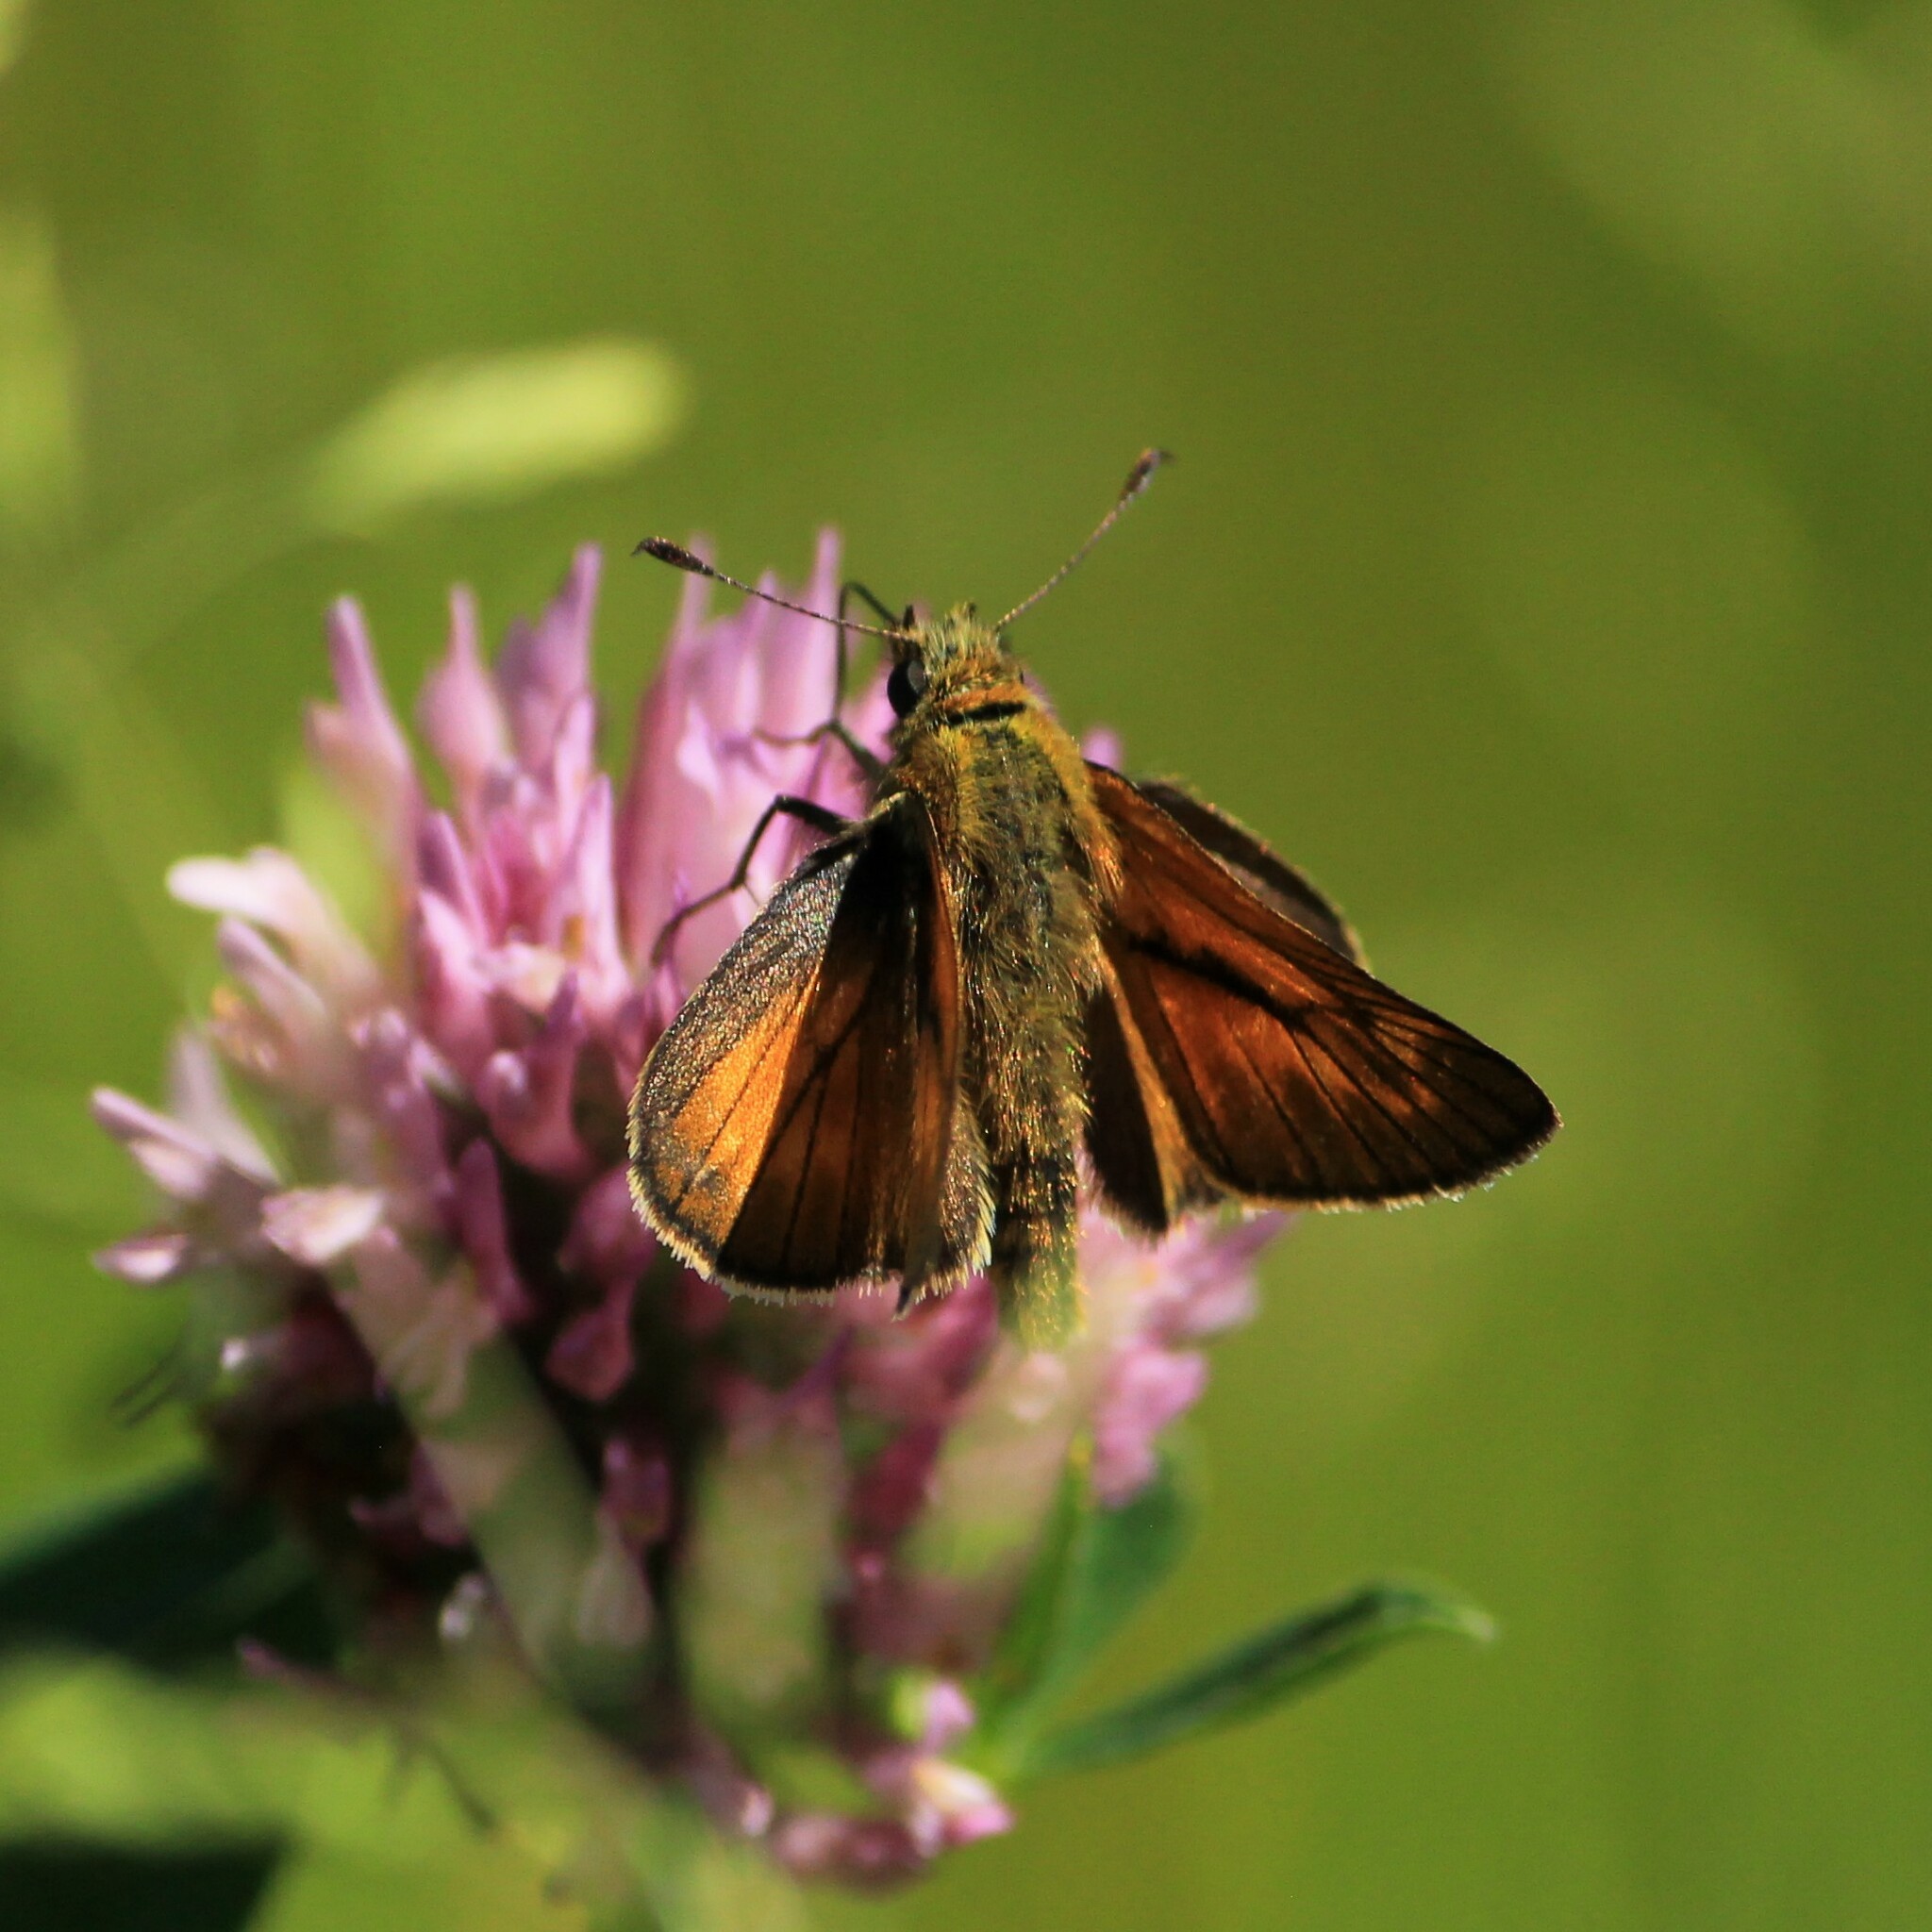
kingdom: Animalia
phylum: Arthropoda
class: Insecta
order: Lepidoptera
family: Hesperiidae
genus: Ochlodes
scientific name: Ochlodes venata
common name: Large skipper
